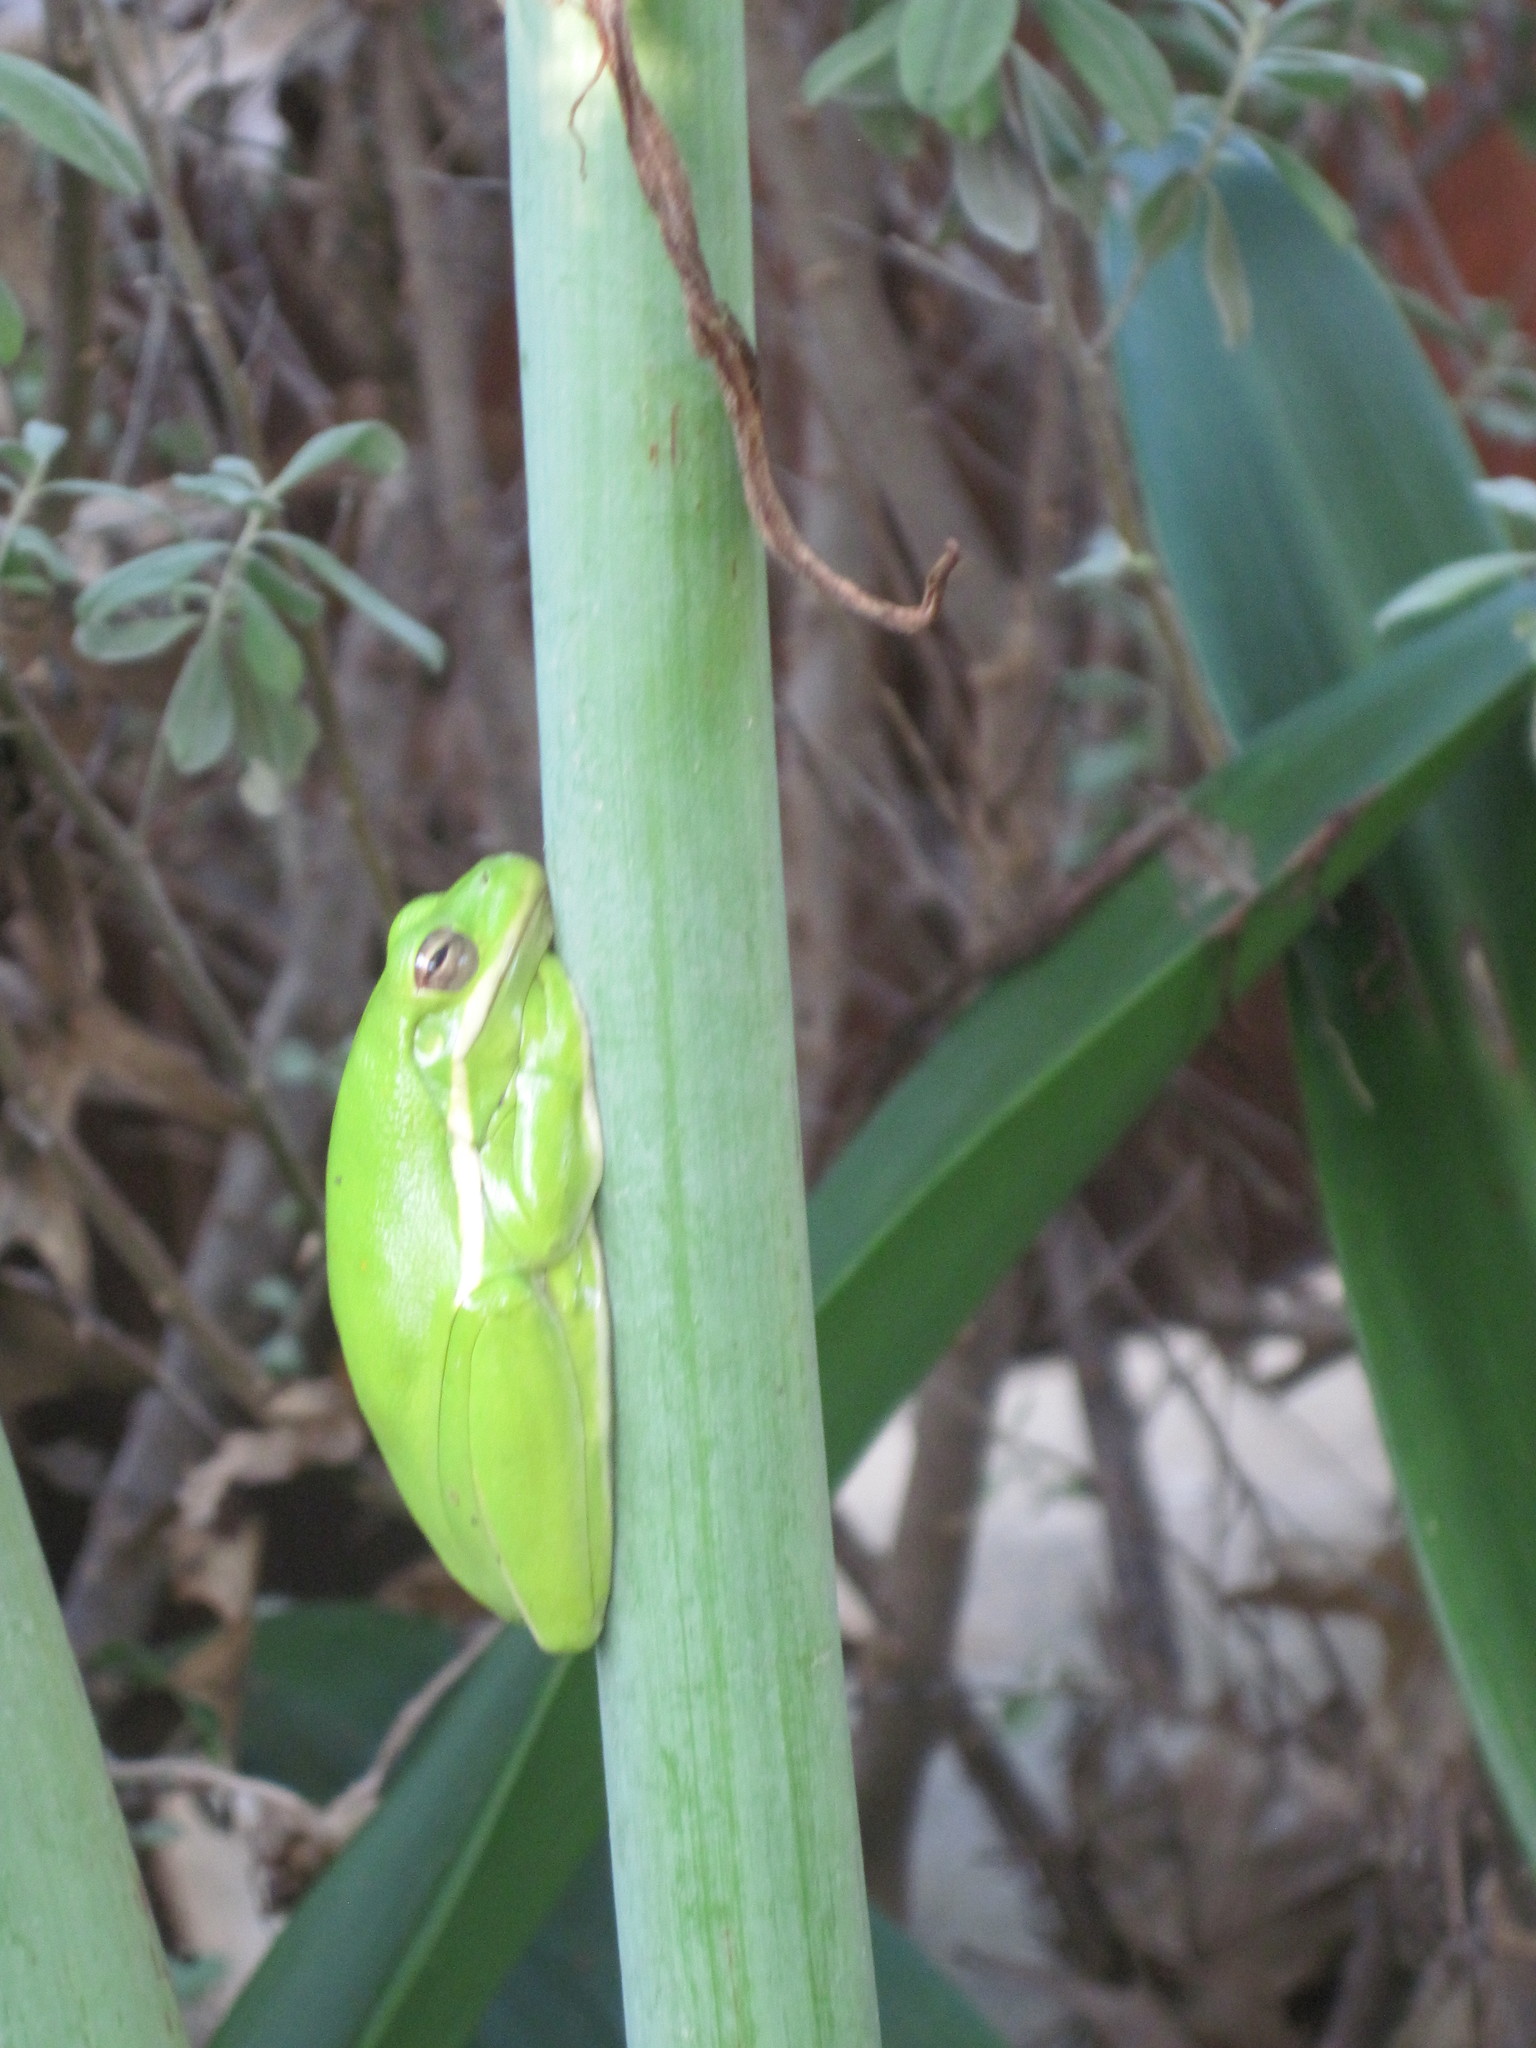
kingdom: Animalia
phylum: Chordata
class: Amphibia
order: Anura
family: Hylidae
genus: Dryophytes
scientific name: Dryophytes cinereus
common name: Green treefrog
